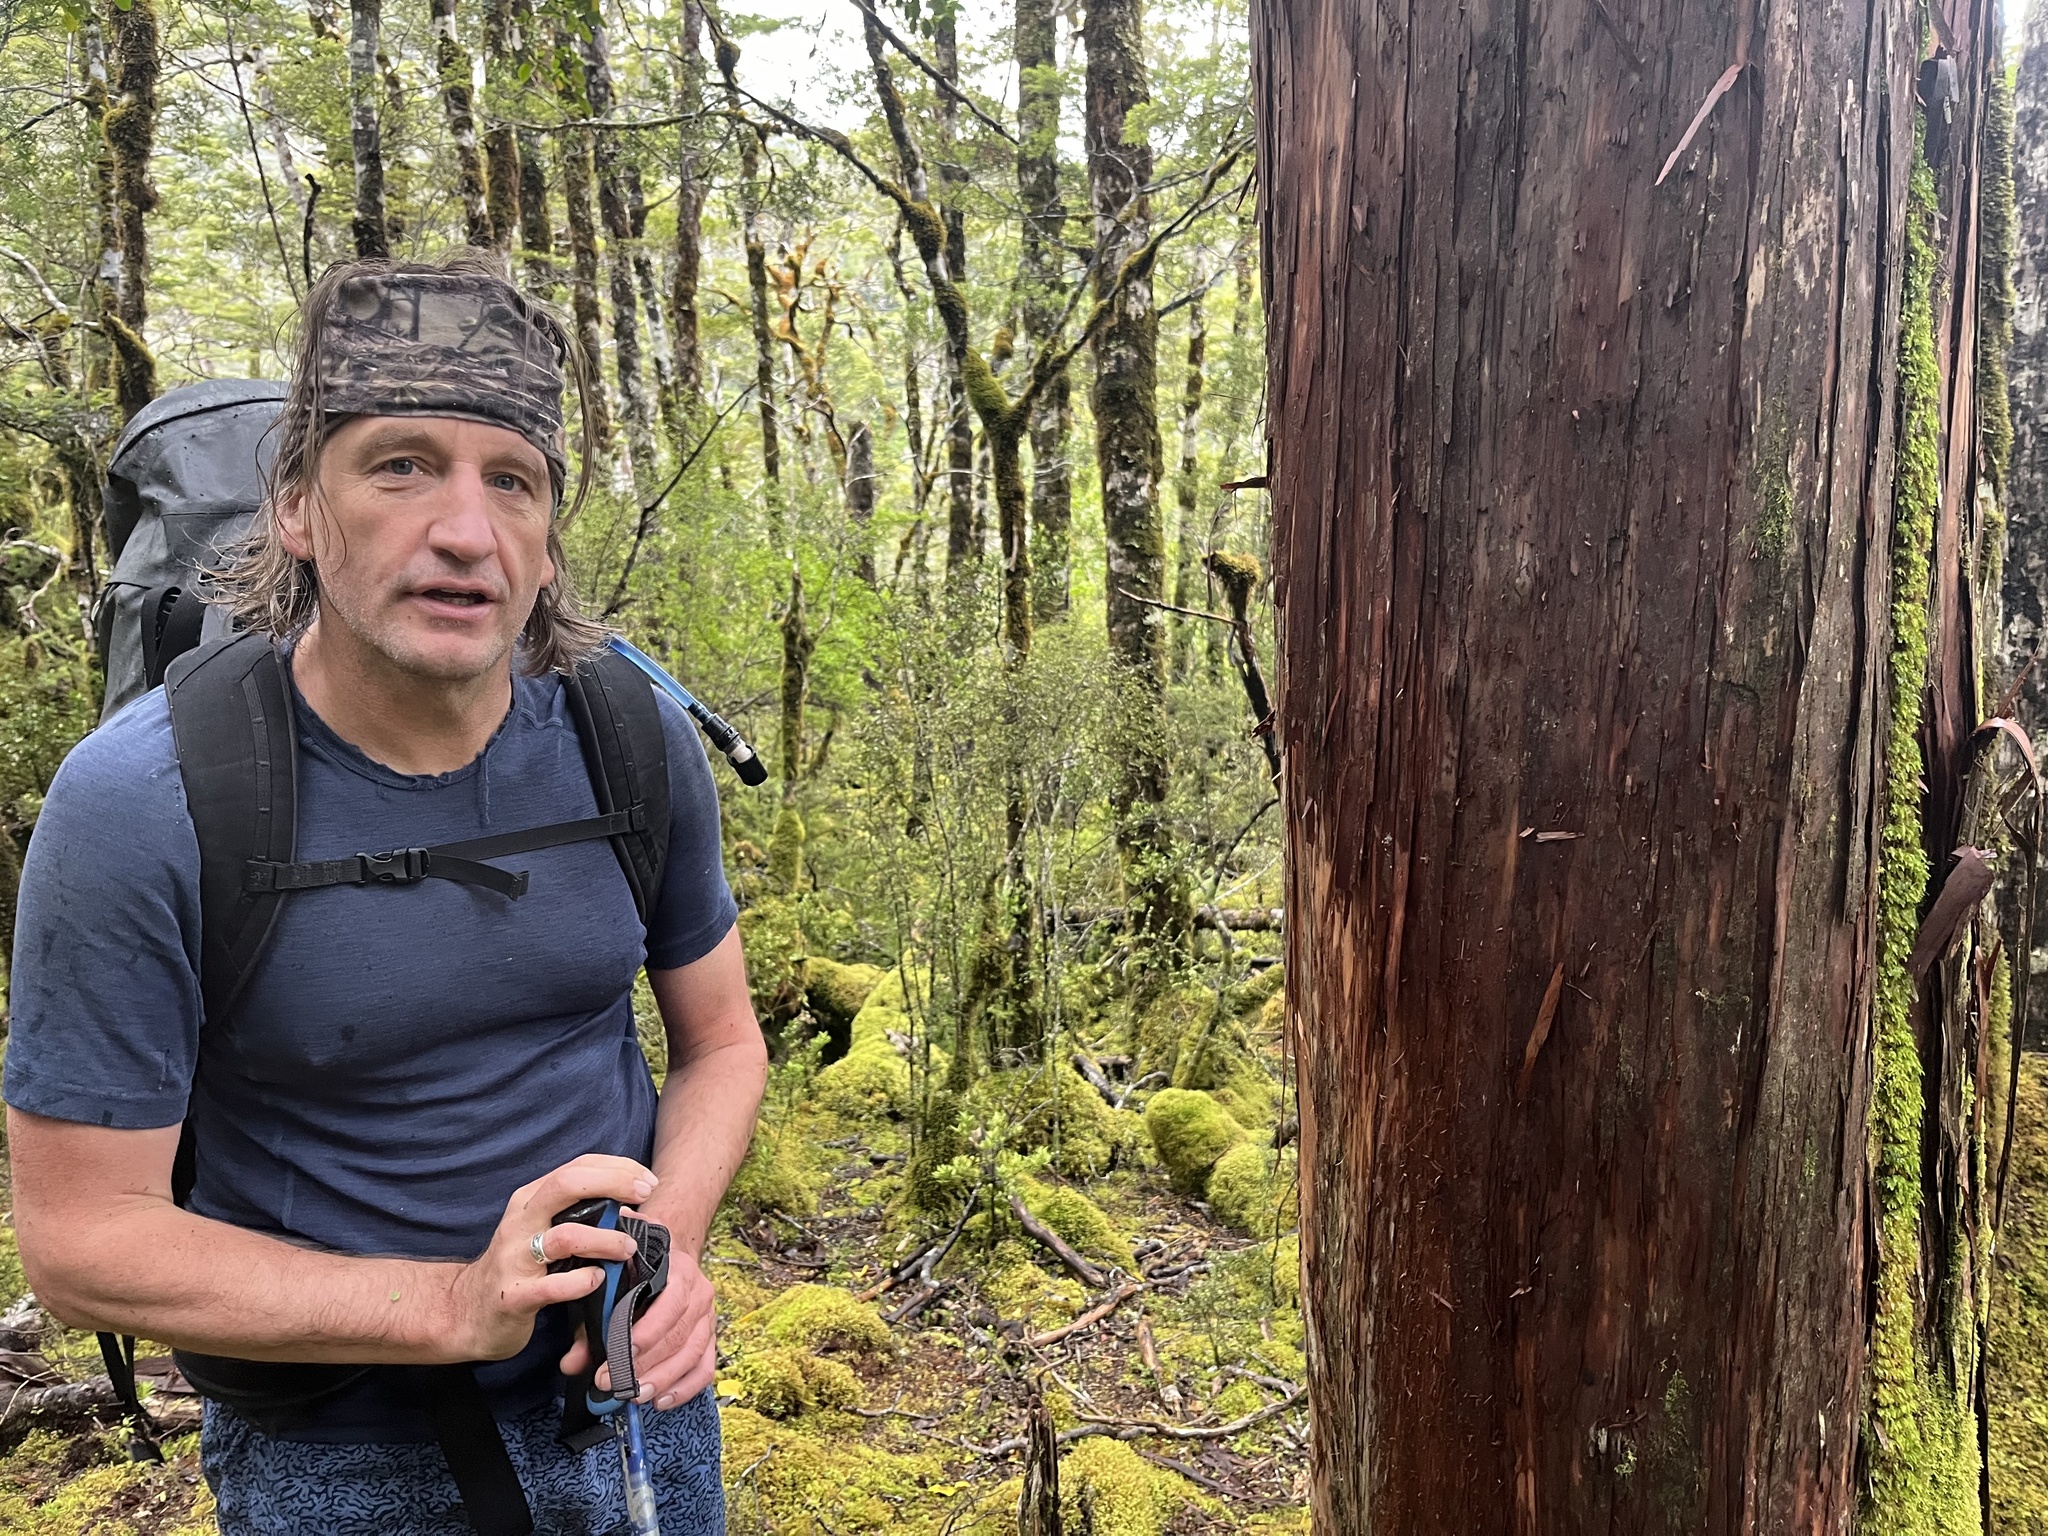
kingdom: Plantae
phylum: Tracheophyta
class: Pinopsida
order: Pinales
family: Cupressaceae
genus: Libocedrus
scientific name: Libocedrus bidwillii
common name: Cedar
